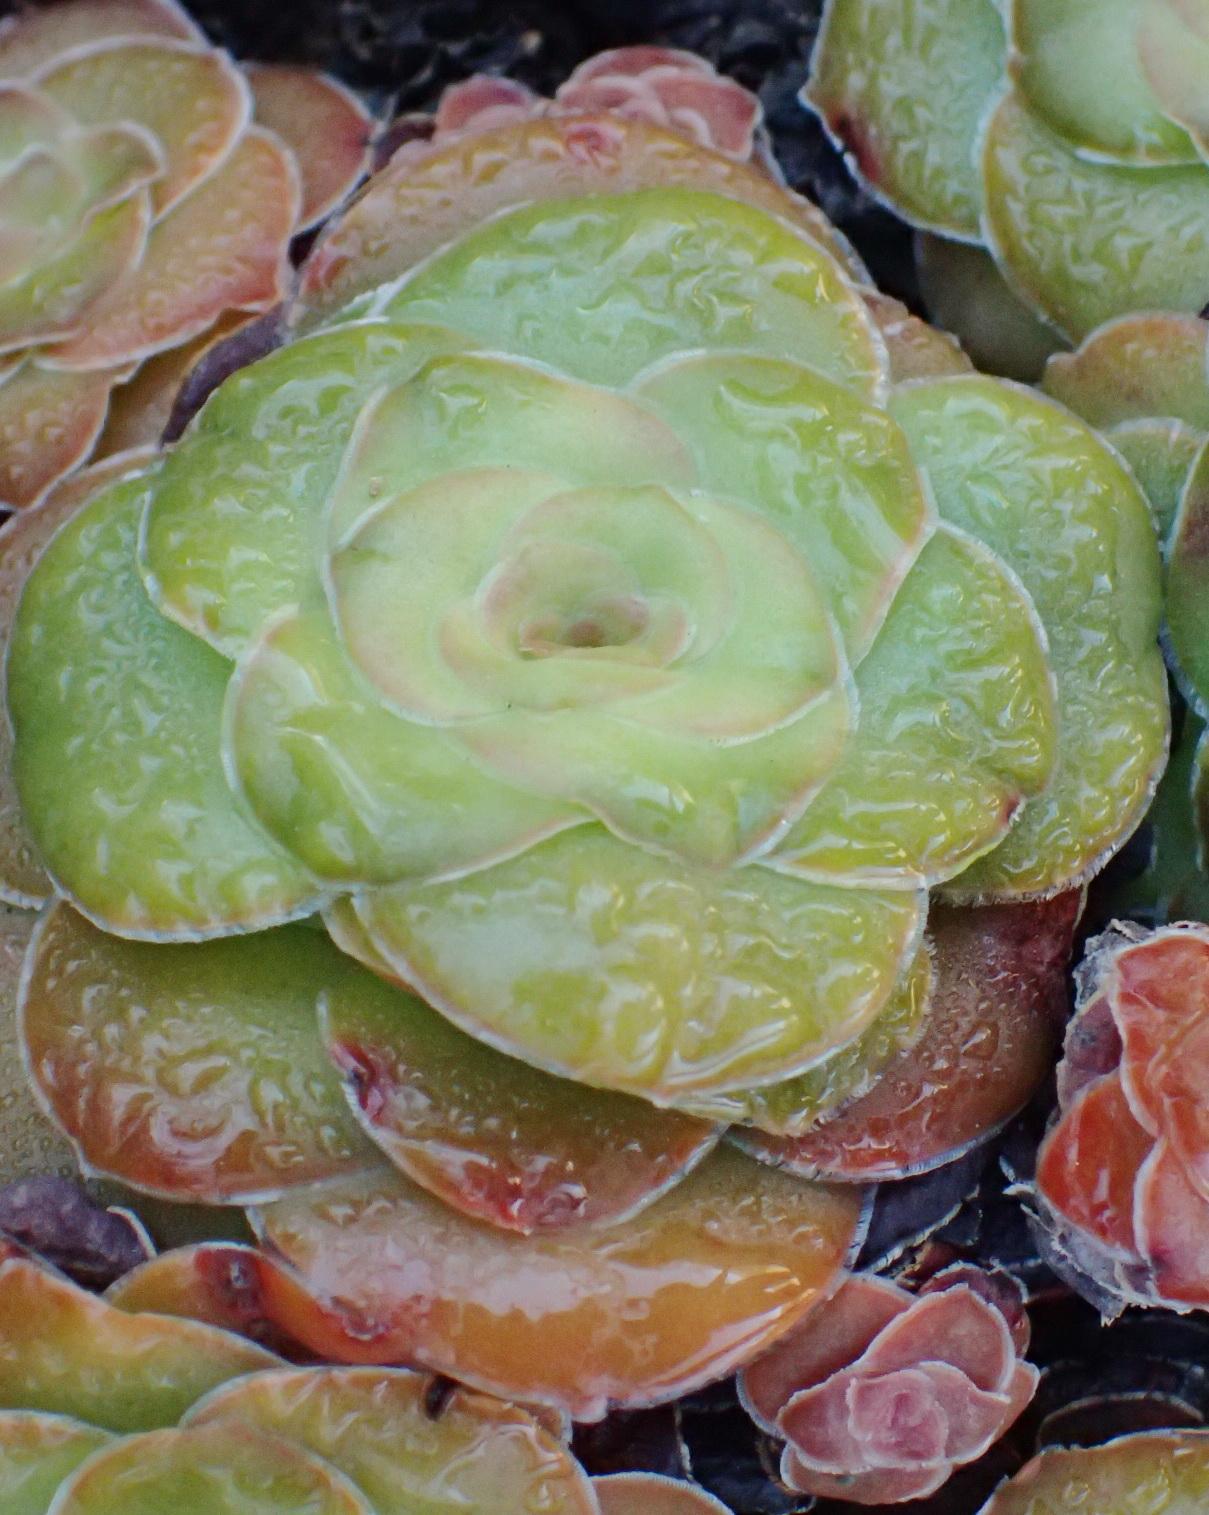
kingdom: Plantae
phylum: Tracheophyta
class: Magnoliopsida
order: Saxifragales
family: Crassulaceae
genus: Crassula
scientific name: Crassula orbicularis
